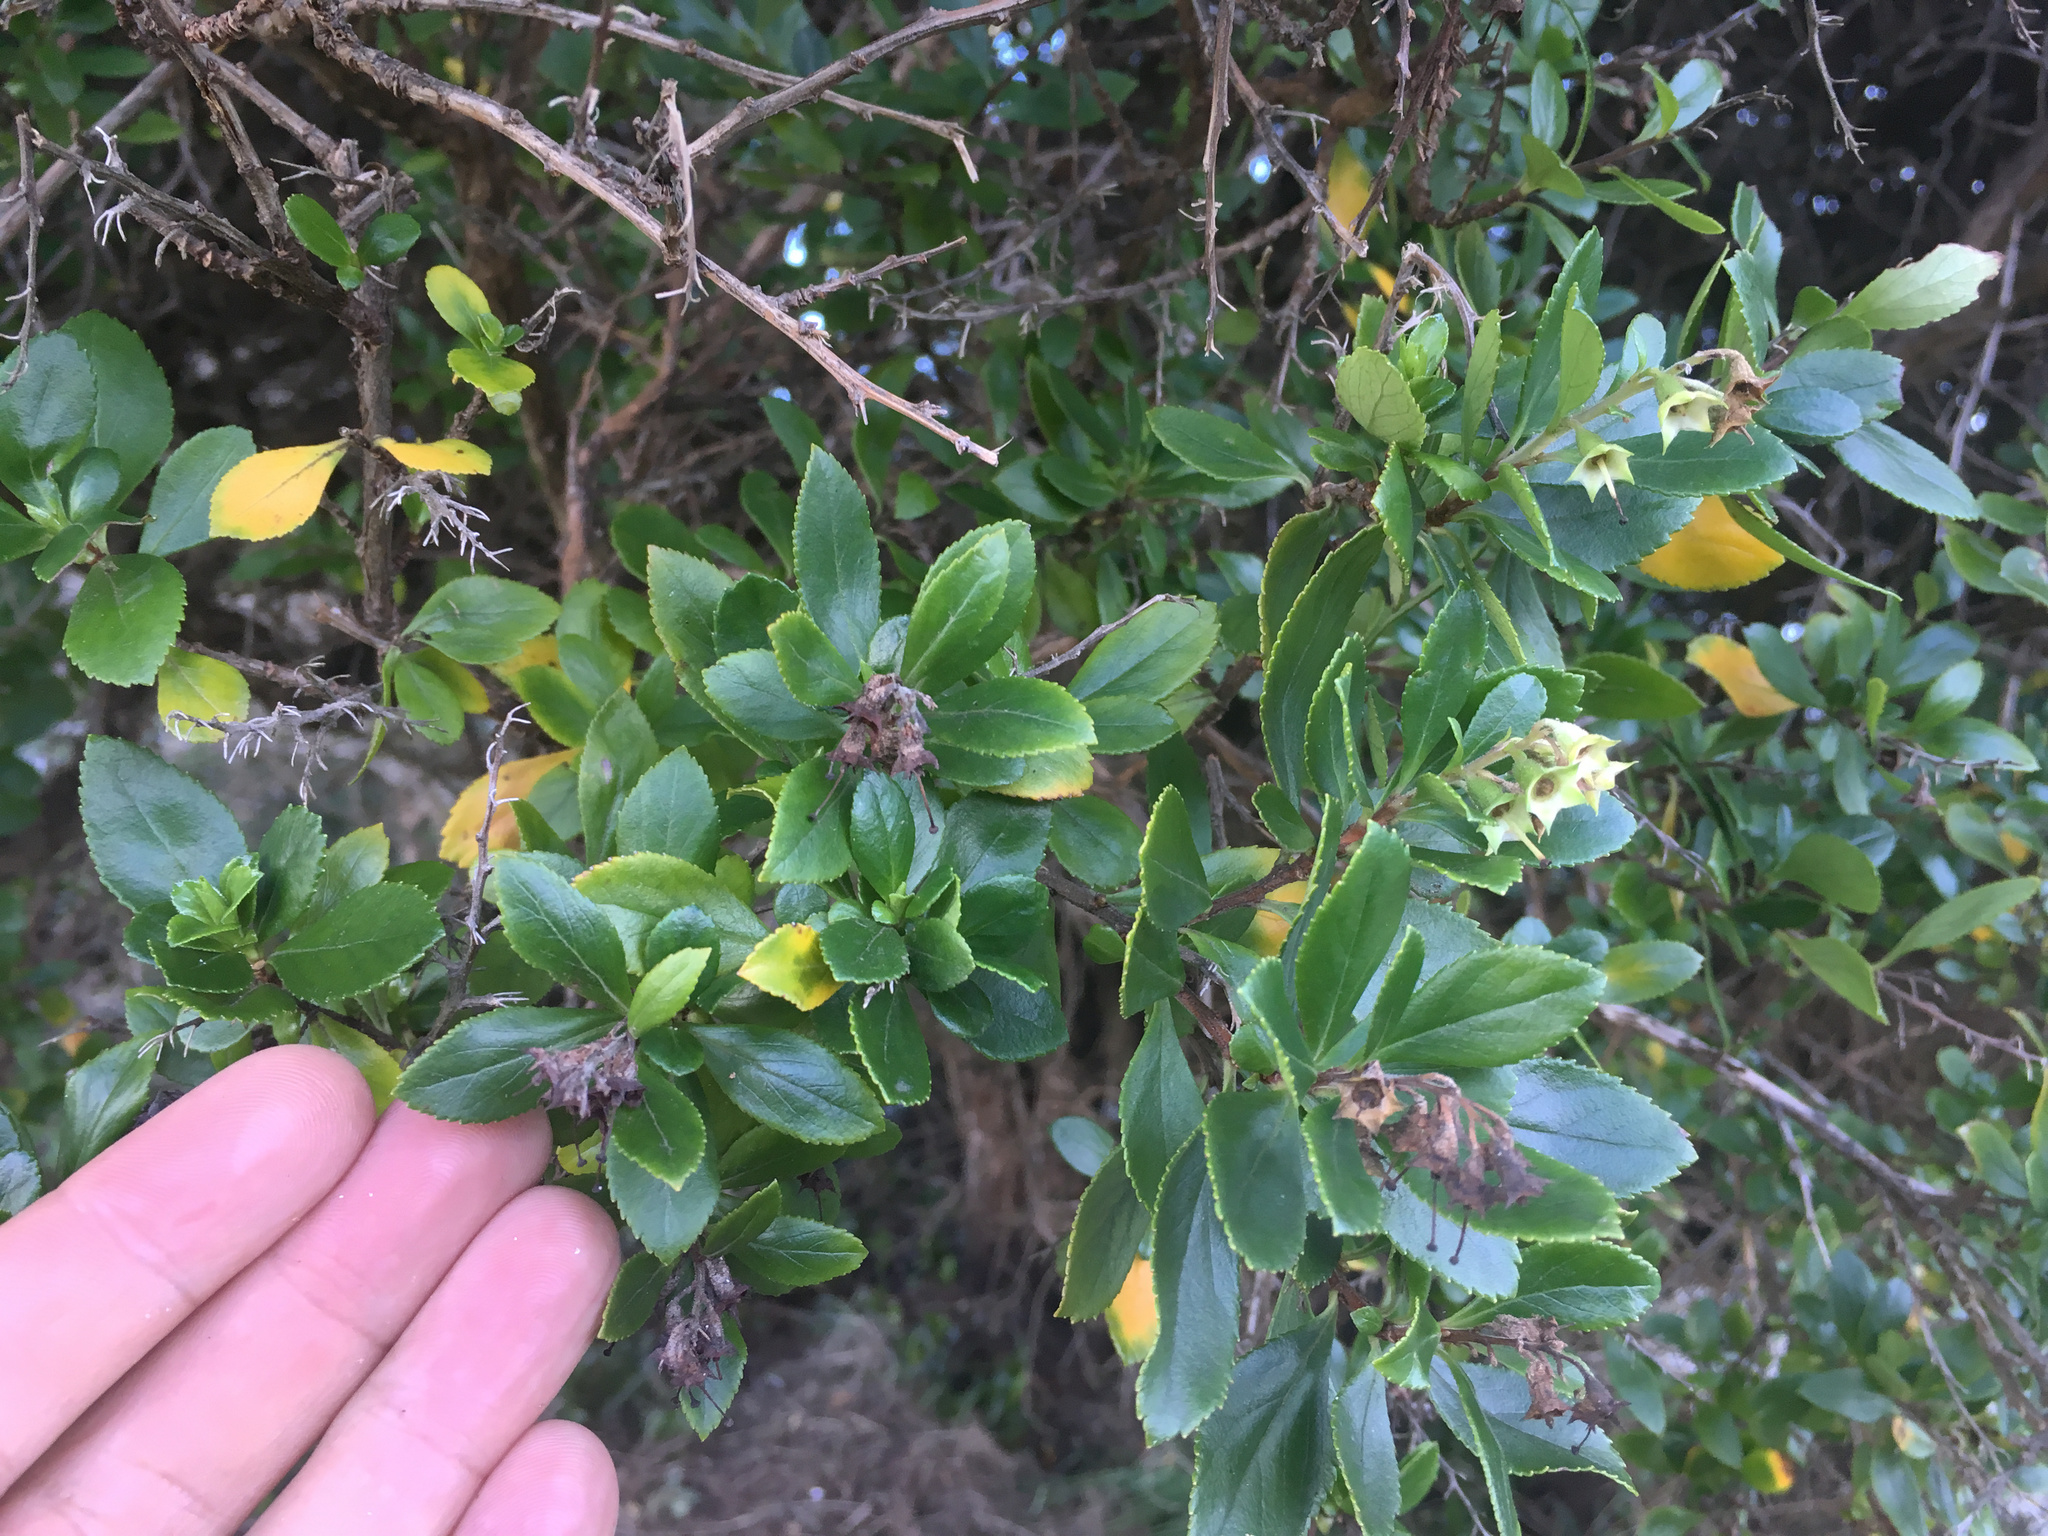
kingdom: Plantae
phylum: Tracheophyta
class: Magnoliopsida
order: Escalloniales
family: Escalloniaceae
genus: Escallonia
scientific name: Escallonia rubra
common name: Redclaws
